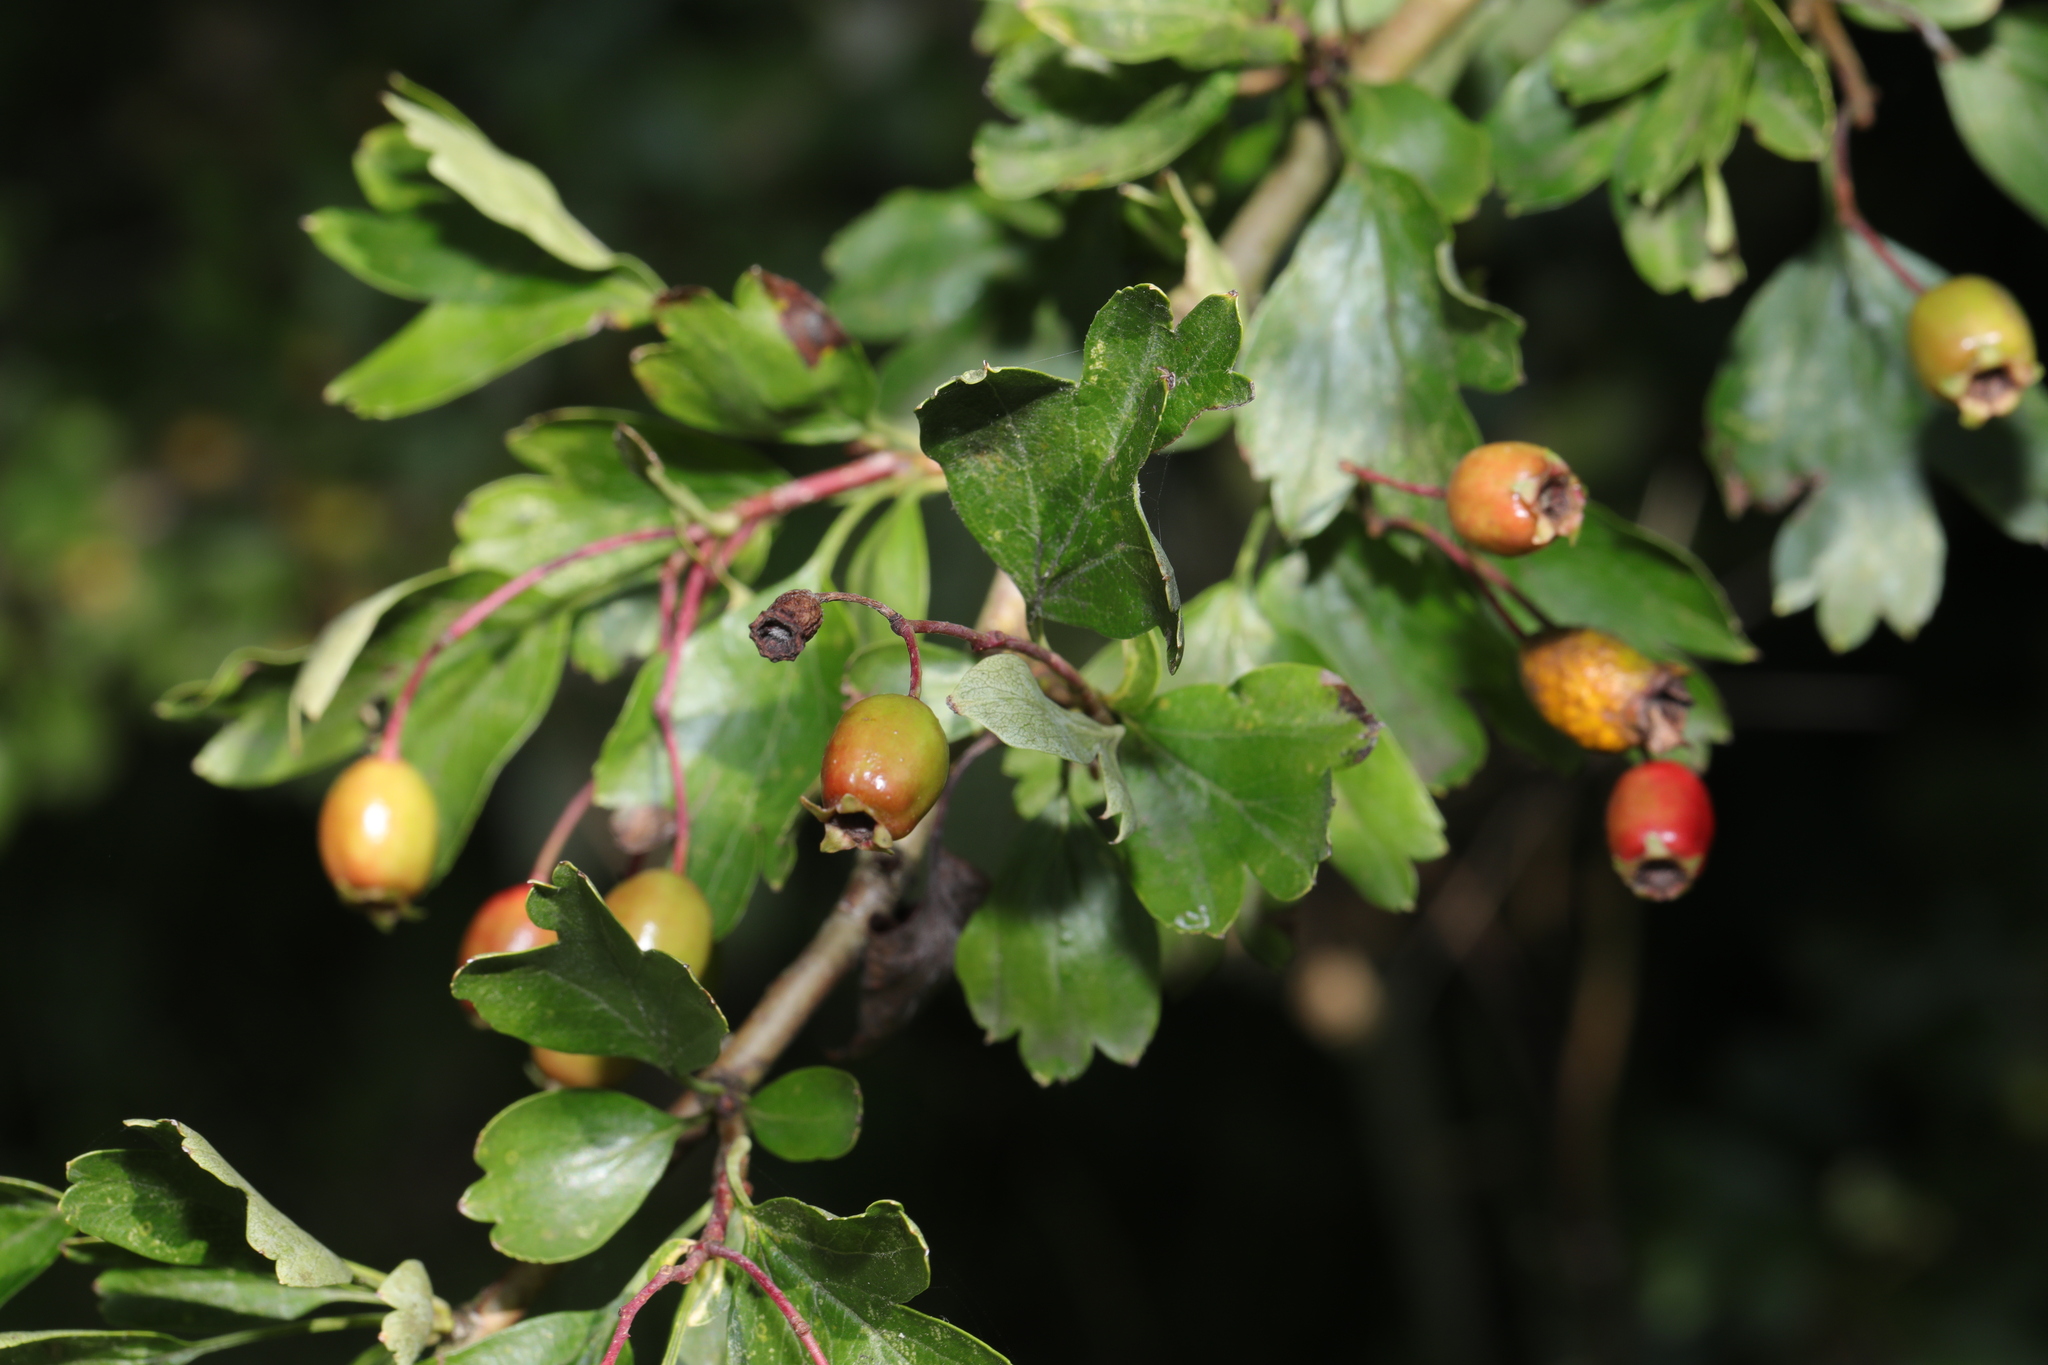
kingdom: Plantae
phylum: Tracheophyta
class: Magnoliopsida
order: Rosales
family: Rosaceae
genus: Crataegus
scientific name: Crataegus monogyna
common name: Hawthorn
